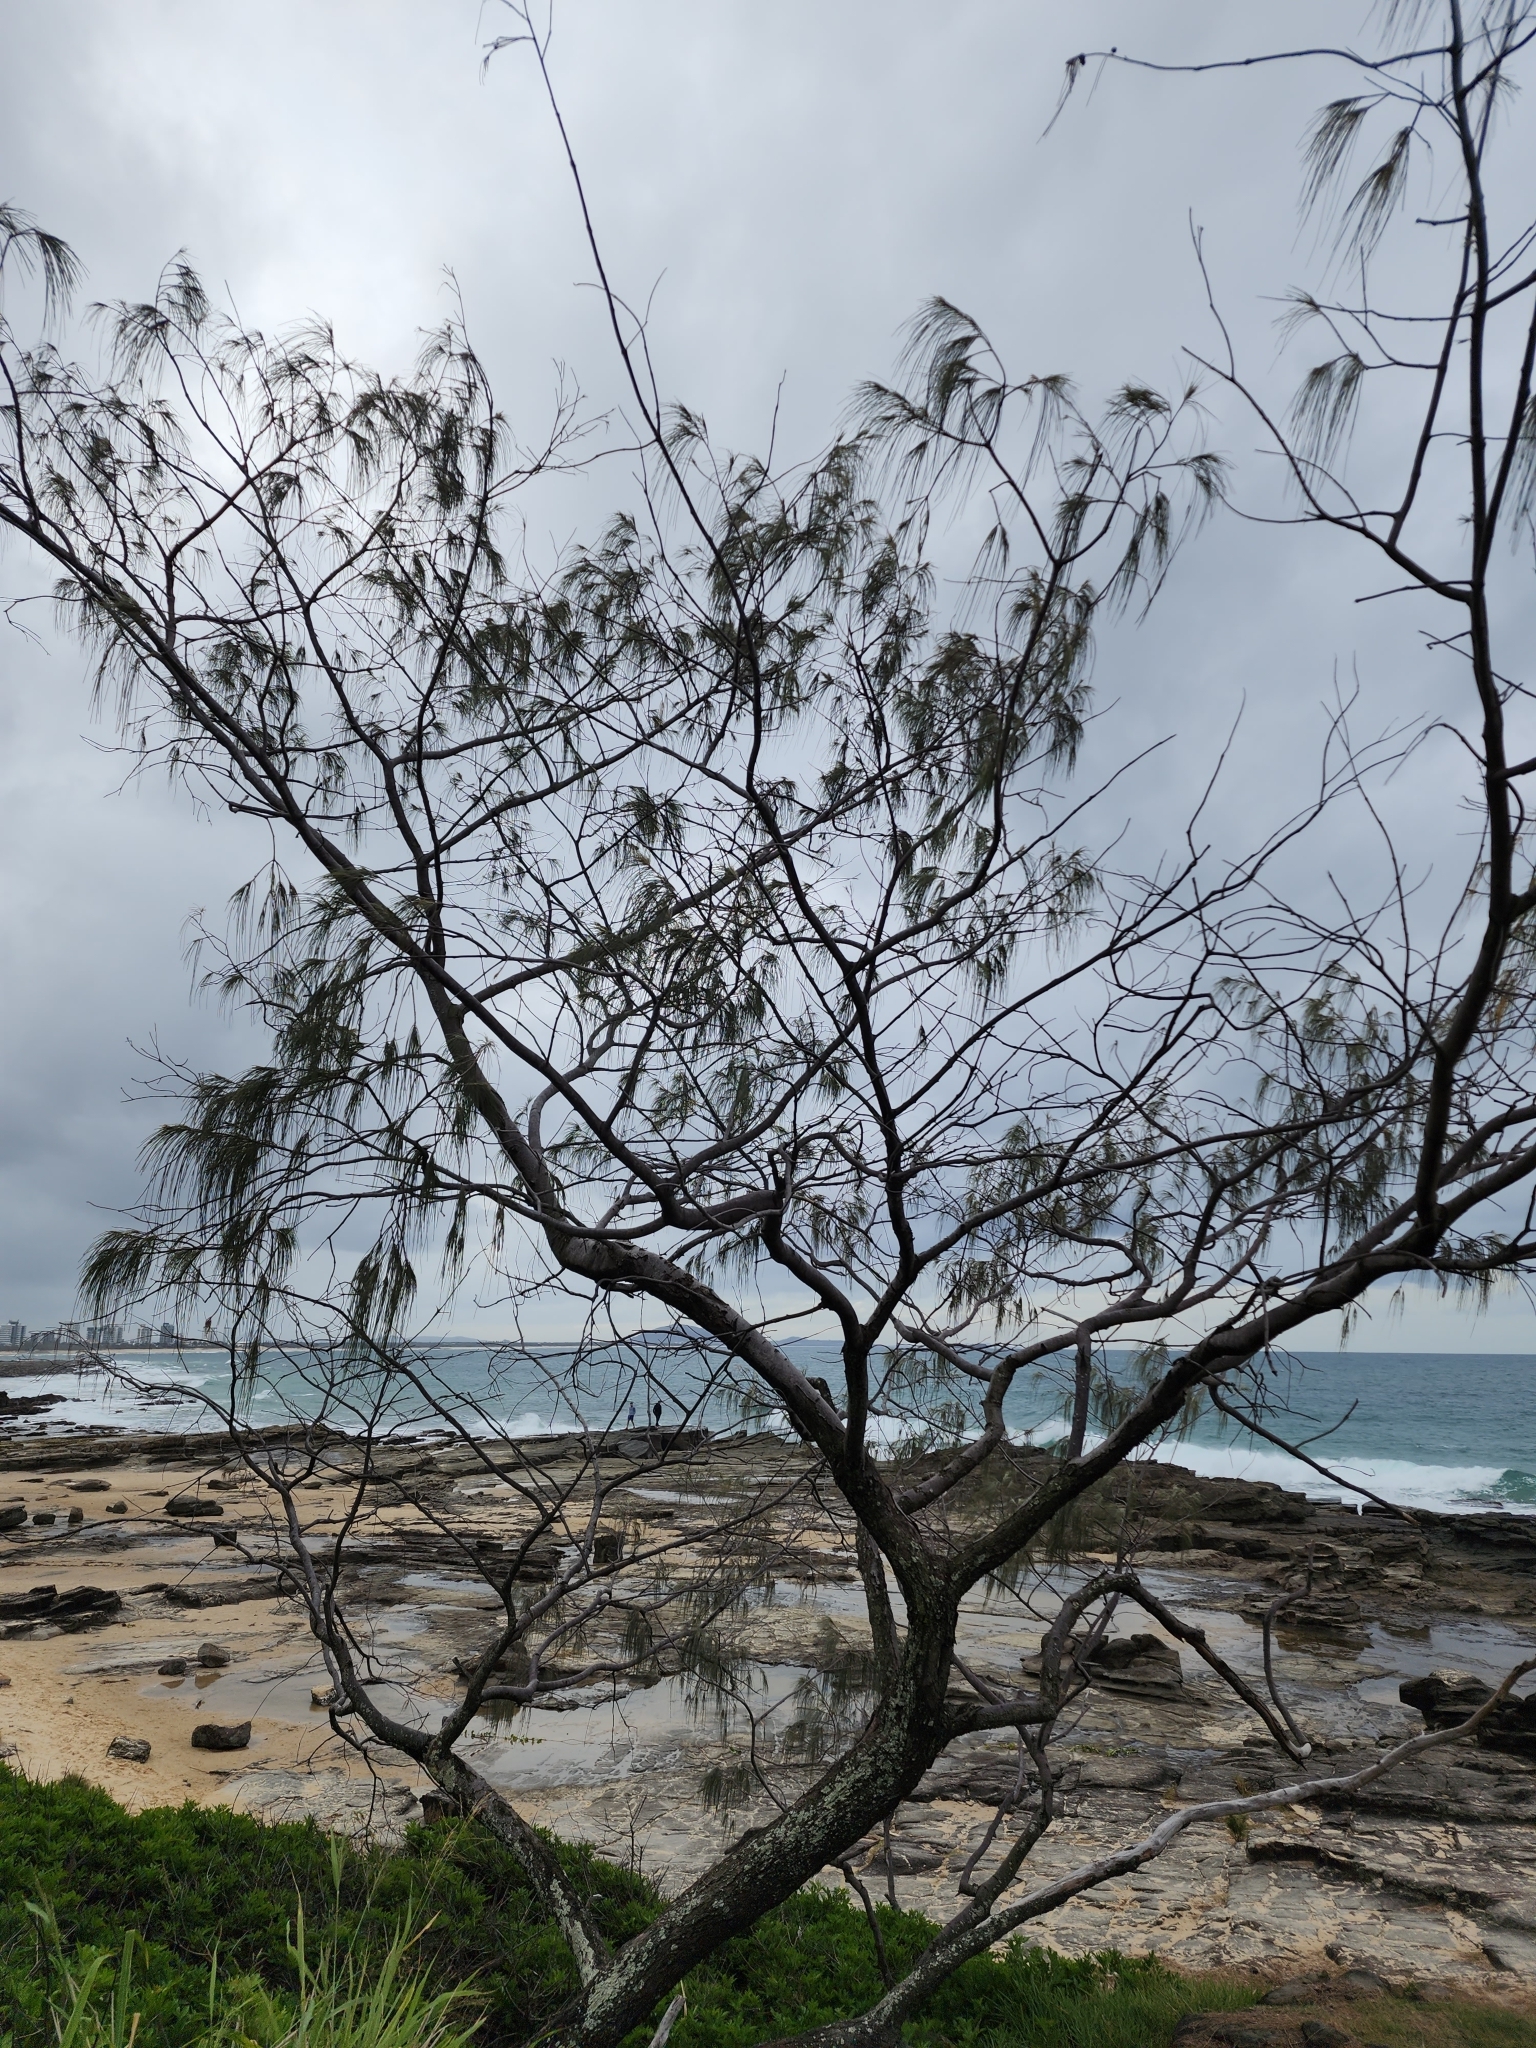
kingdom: Plantae
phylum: Tracheophyta
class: Magnoliopsida
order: Fagales
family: Casuarinaceae
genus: Casuarina
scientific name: Casuarina equisetifolia
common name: Beach sheoak
